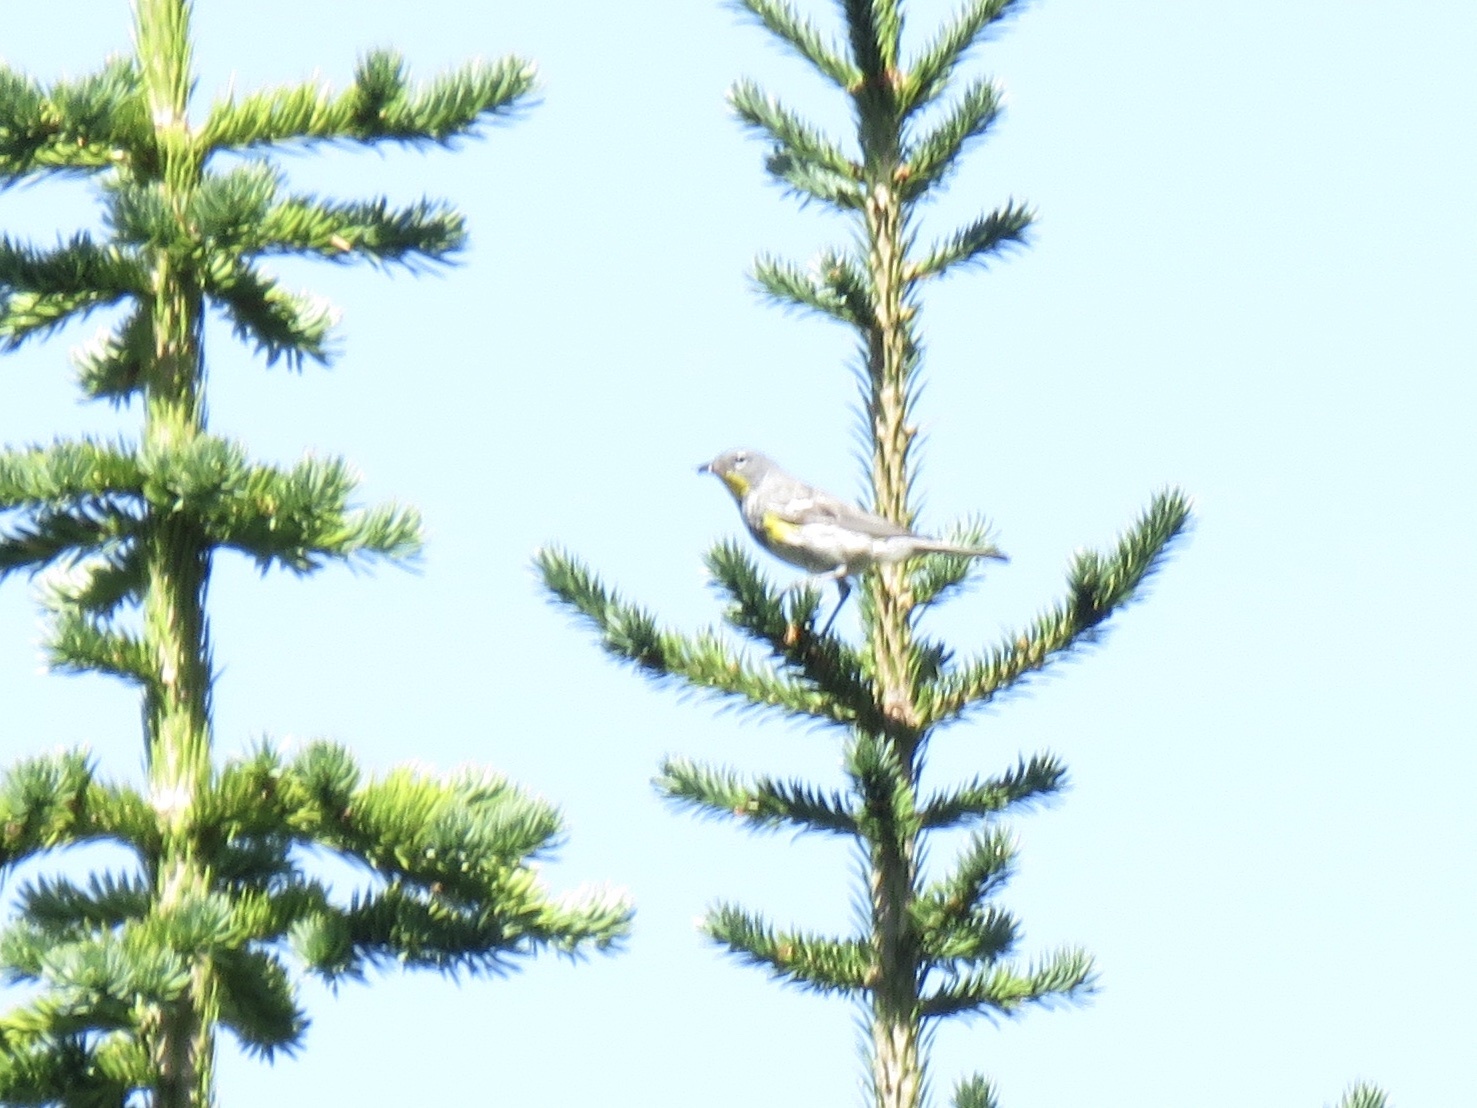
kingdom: Animalia
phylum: Chordata
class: Aves
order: Passeriformes
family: Parulidae
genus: Setophaga
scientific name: Setophaga coronata
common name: Myrtle warbler
